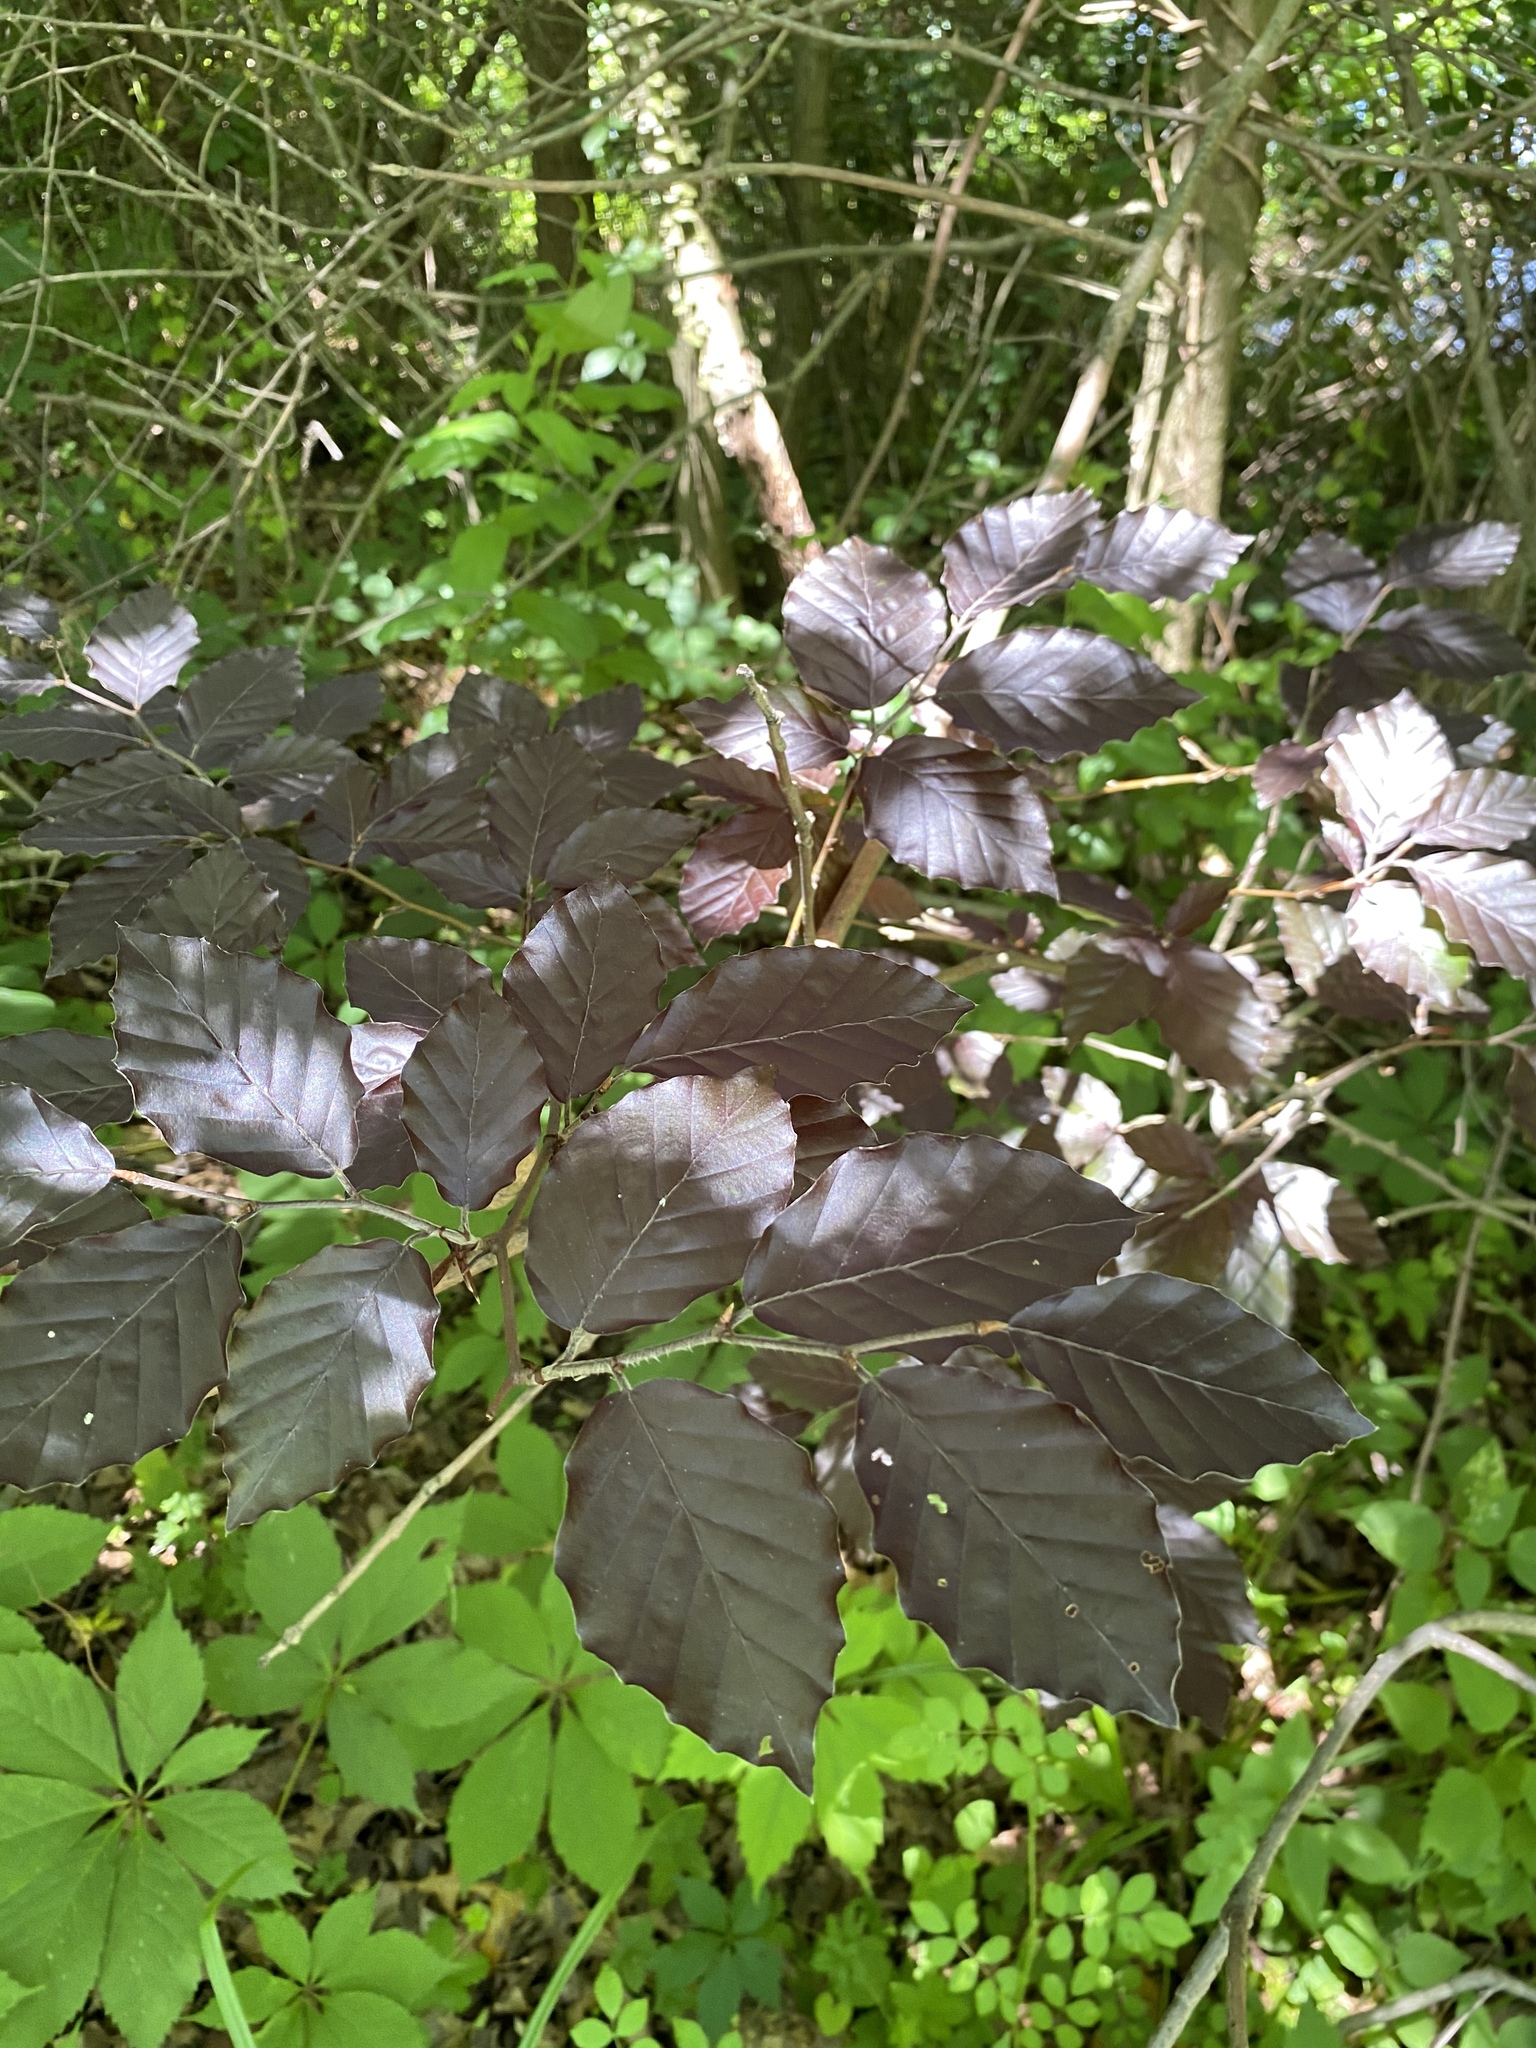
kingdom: Plantae
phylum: Tracheophyta
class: Magnoliopsida
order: Fagales
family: Fagaceae
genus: Fagus
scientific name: Fagus sylvatica
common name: Beech
